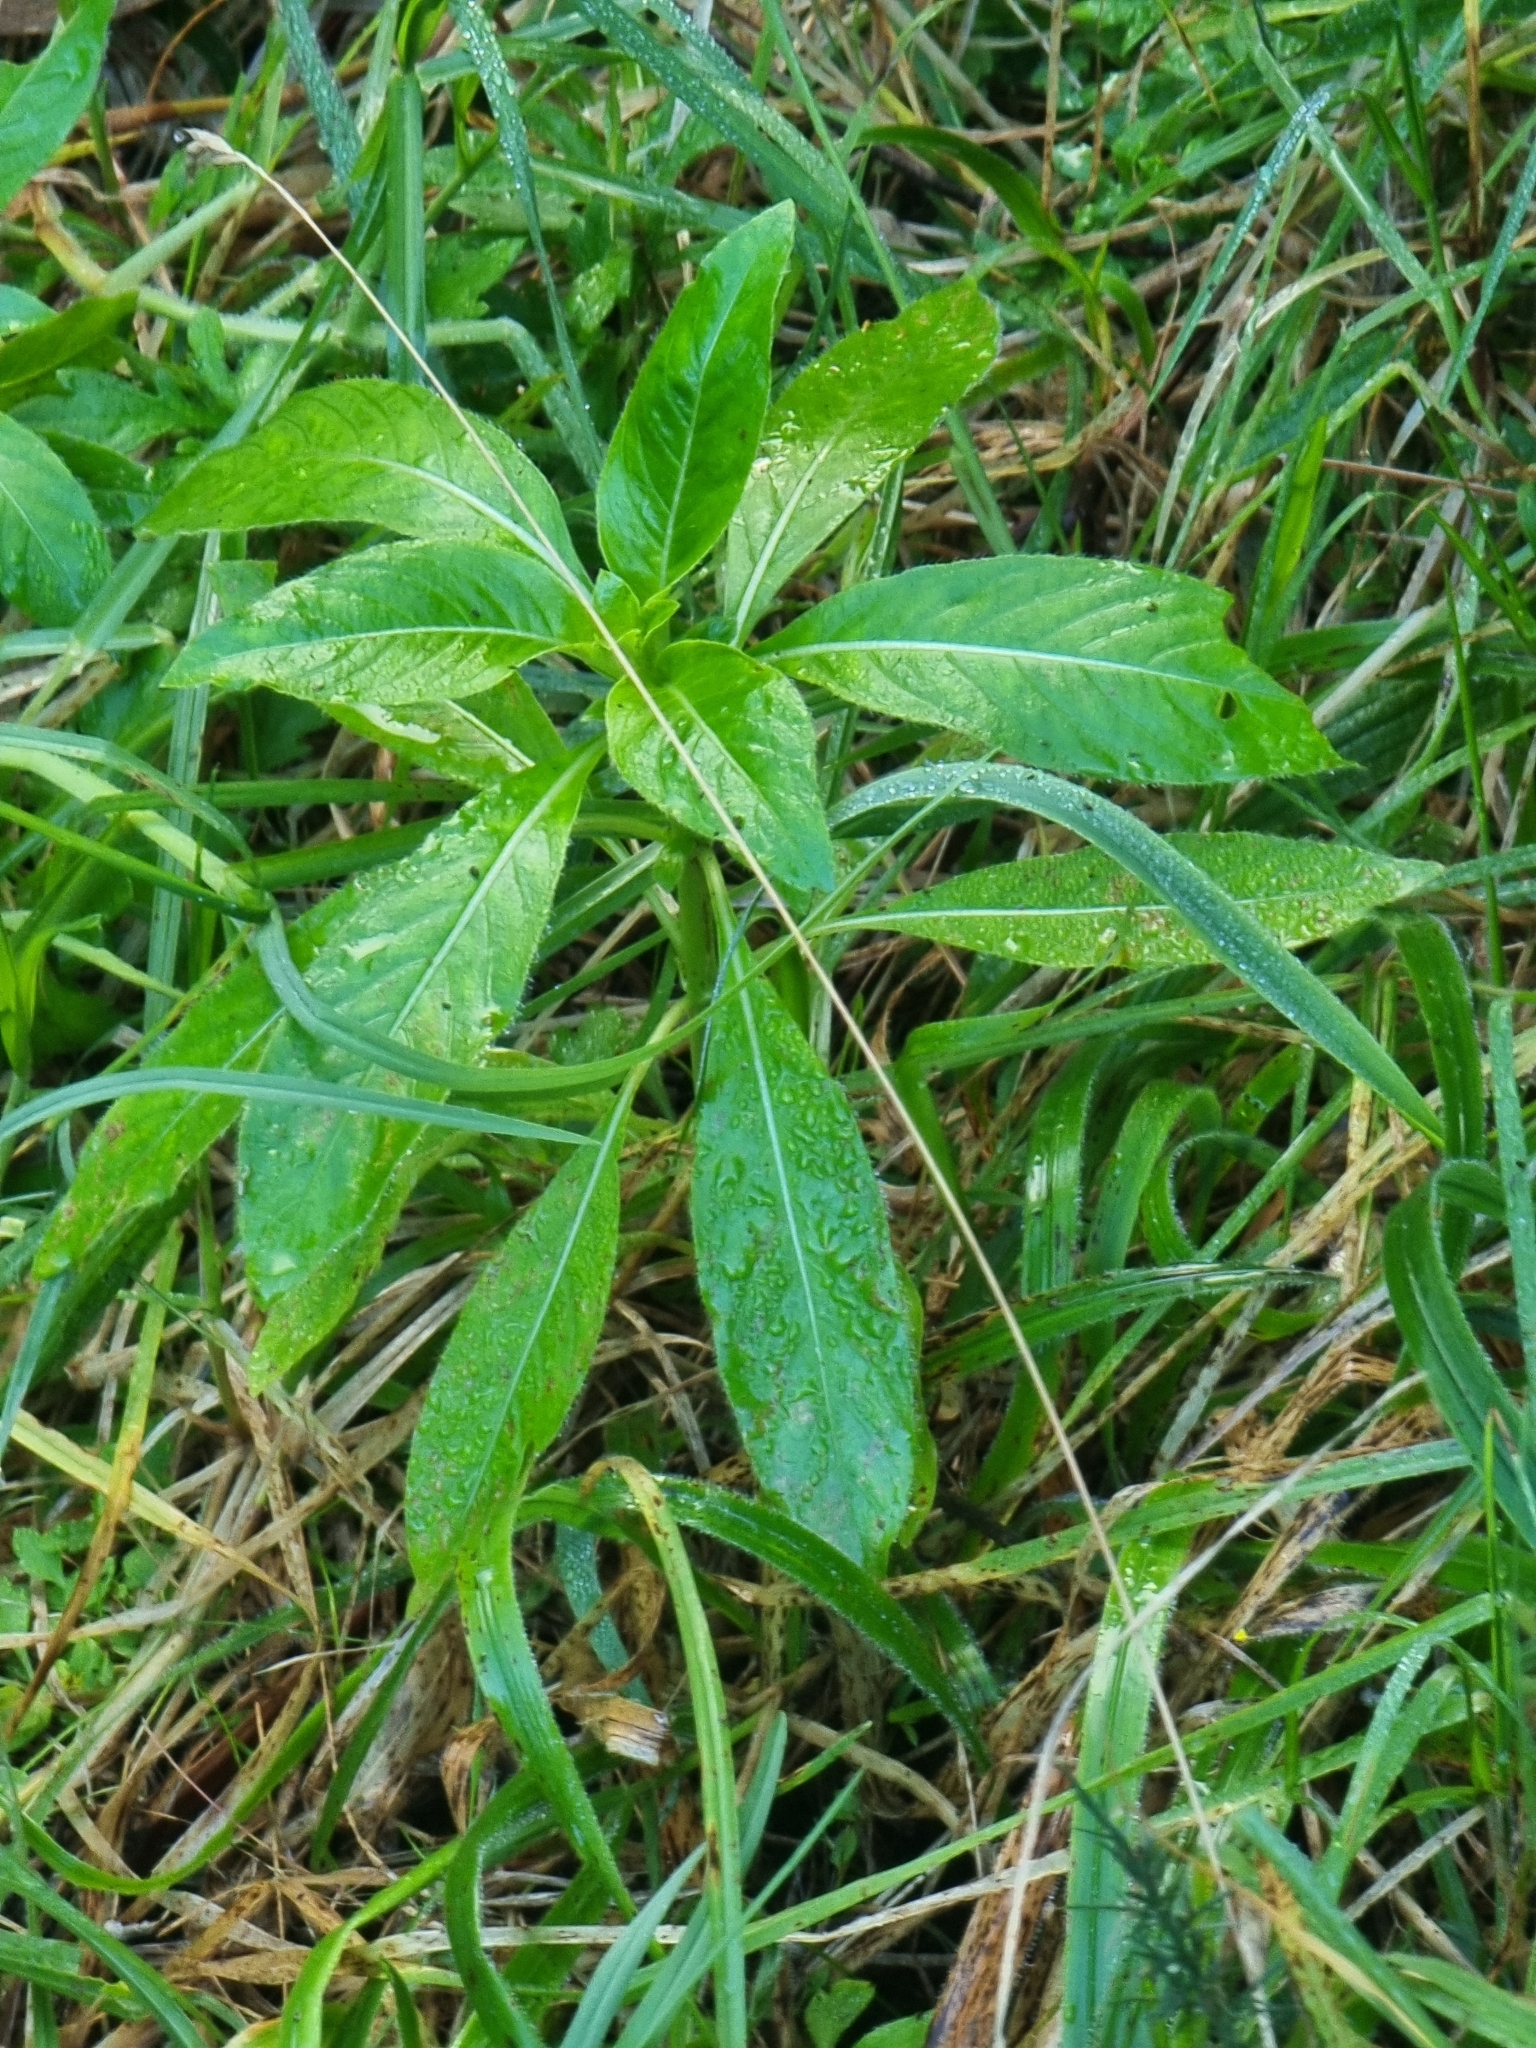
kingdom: Plantae
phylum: Tracheophyta
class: Magnoliopsida
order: Gentianales
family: Rubiaceae
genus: Phyllis
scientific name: Phyllis nobla
